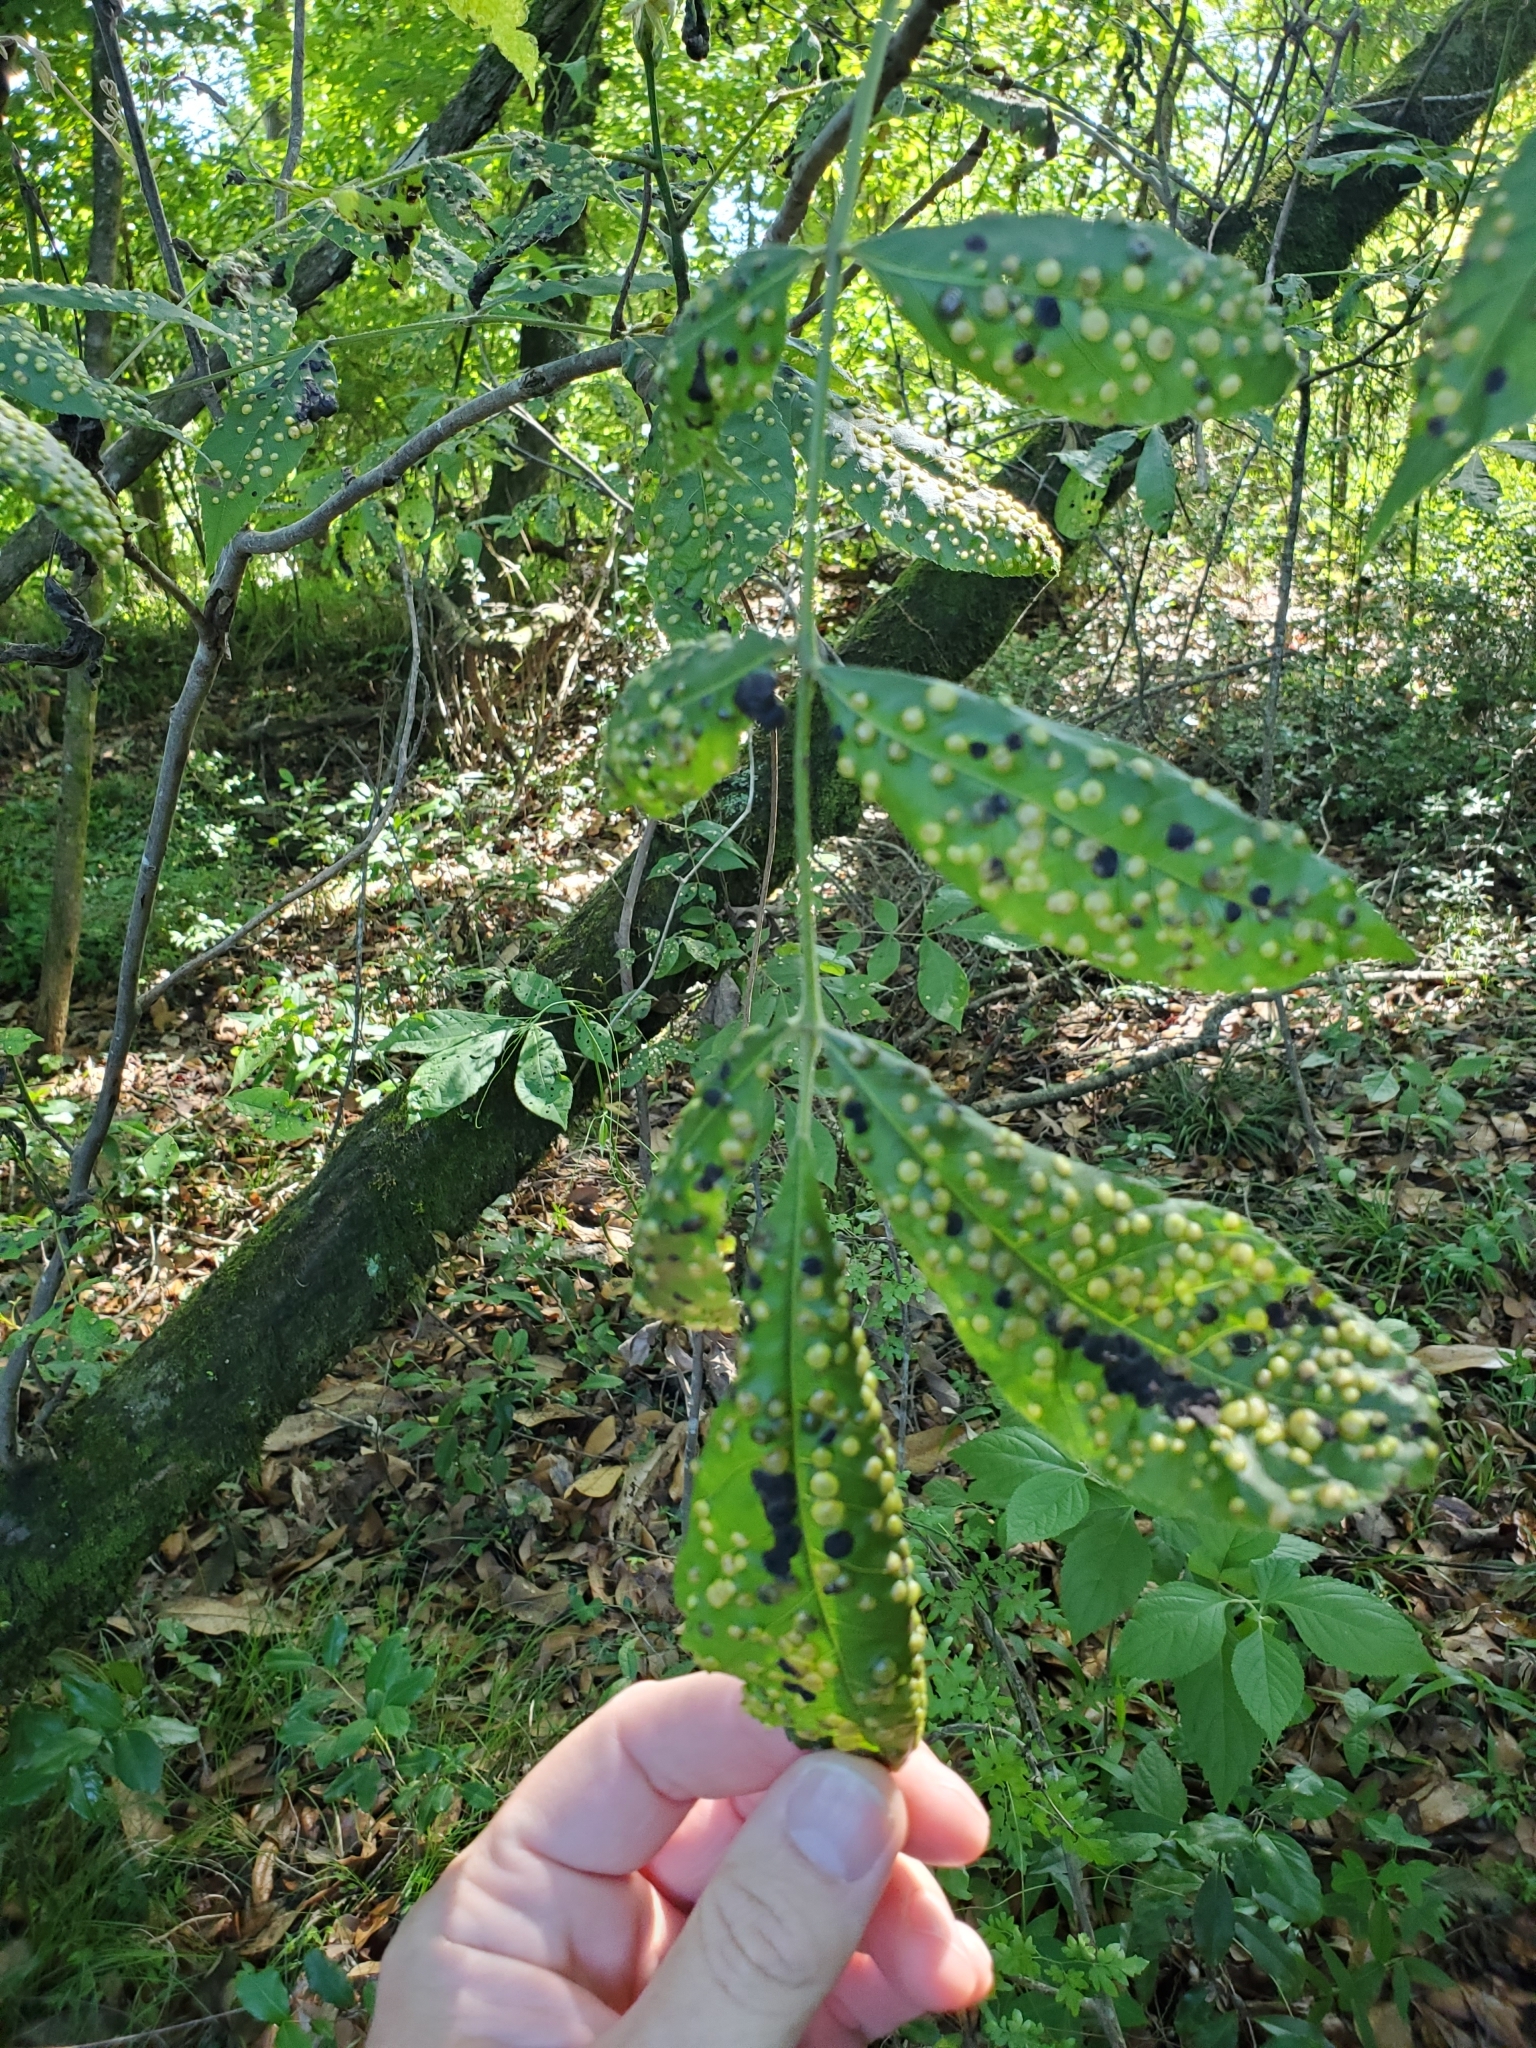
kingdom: Animalia
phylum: Arthropoda
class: Insecta
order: Hemiptera
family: Phylloxeridae
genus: Phylloxera
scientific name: Phylloxera caryaefallax
